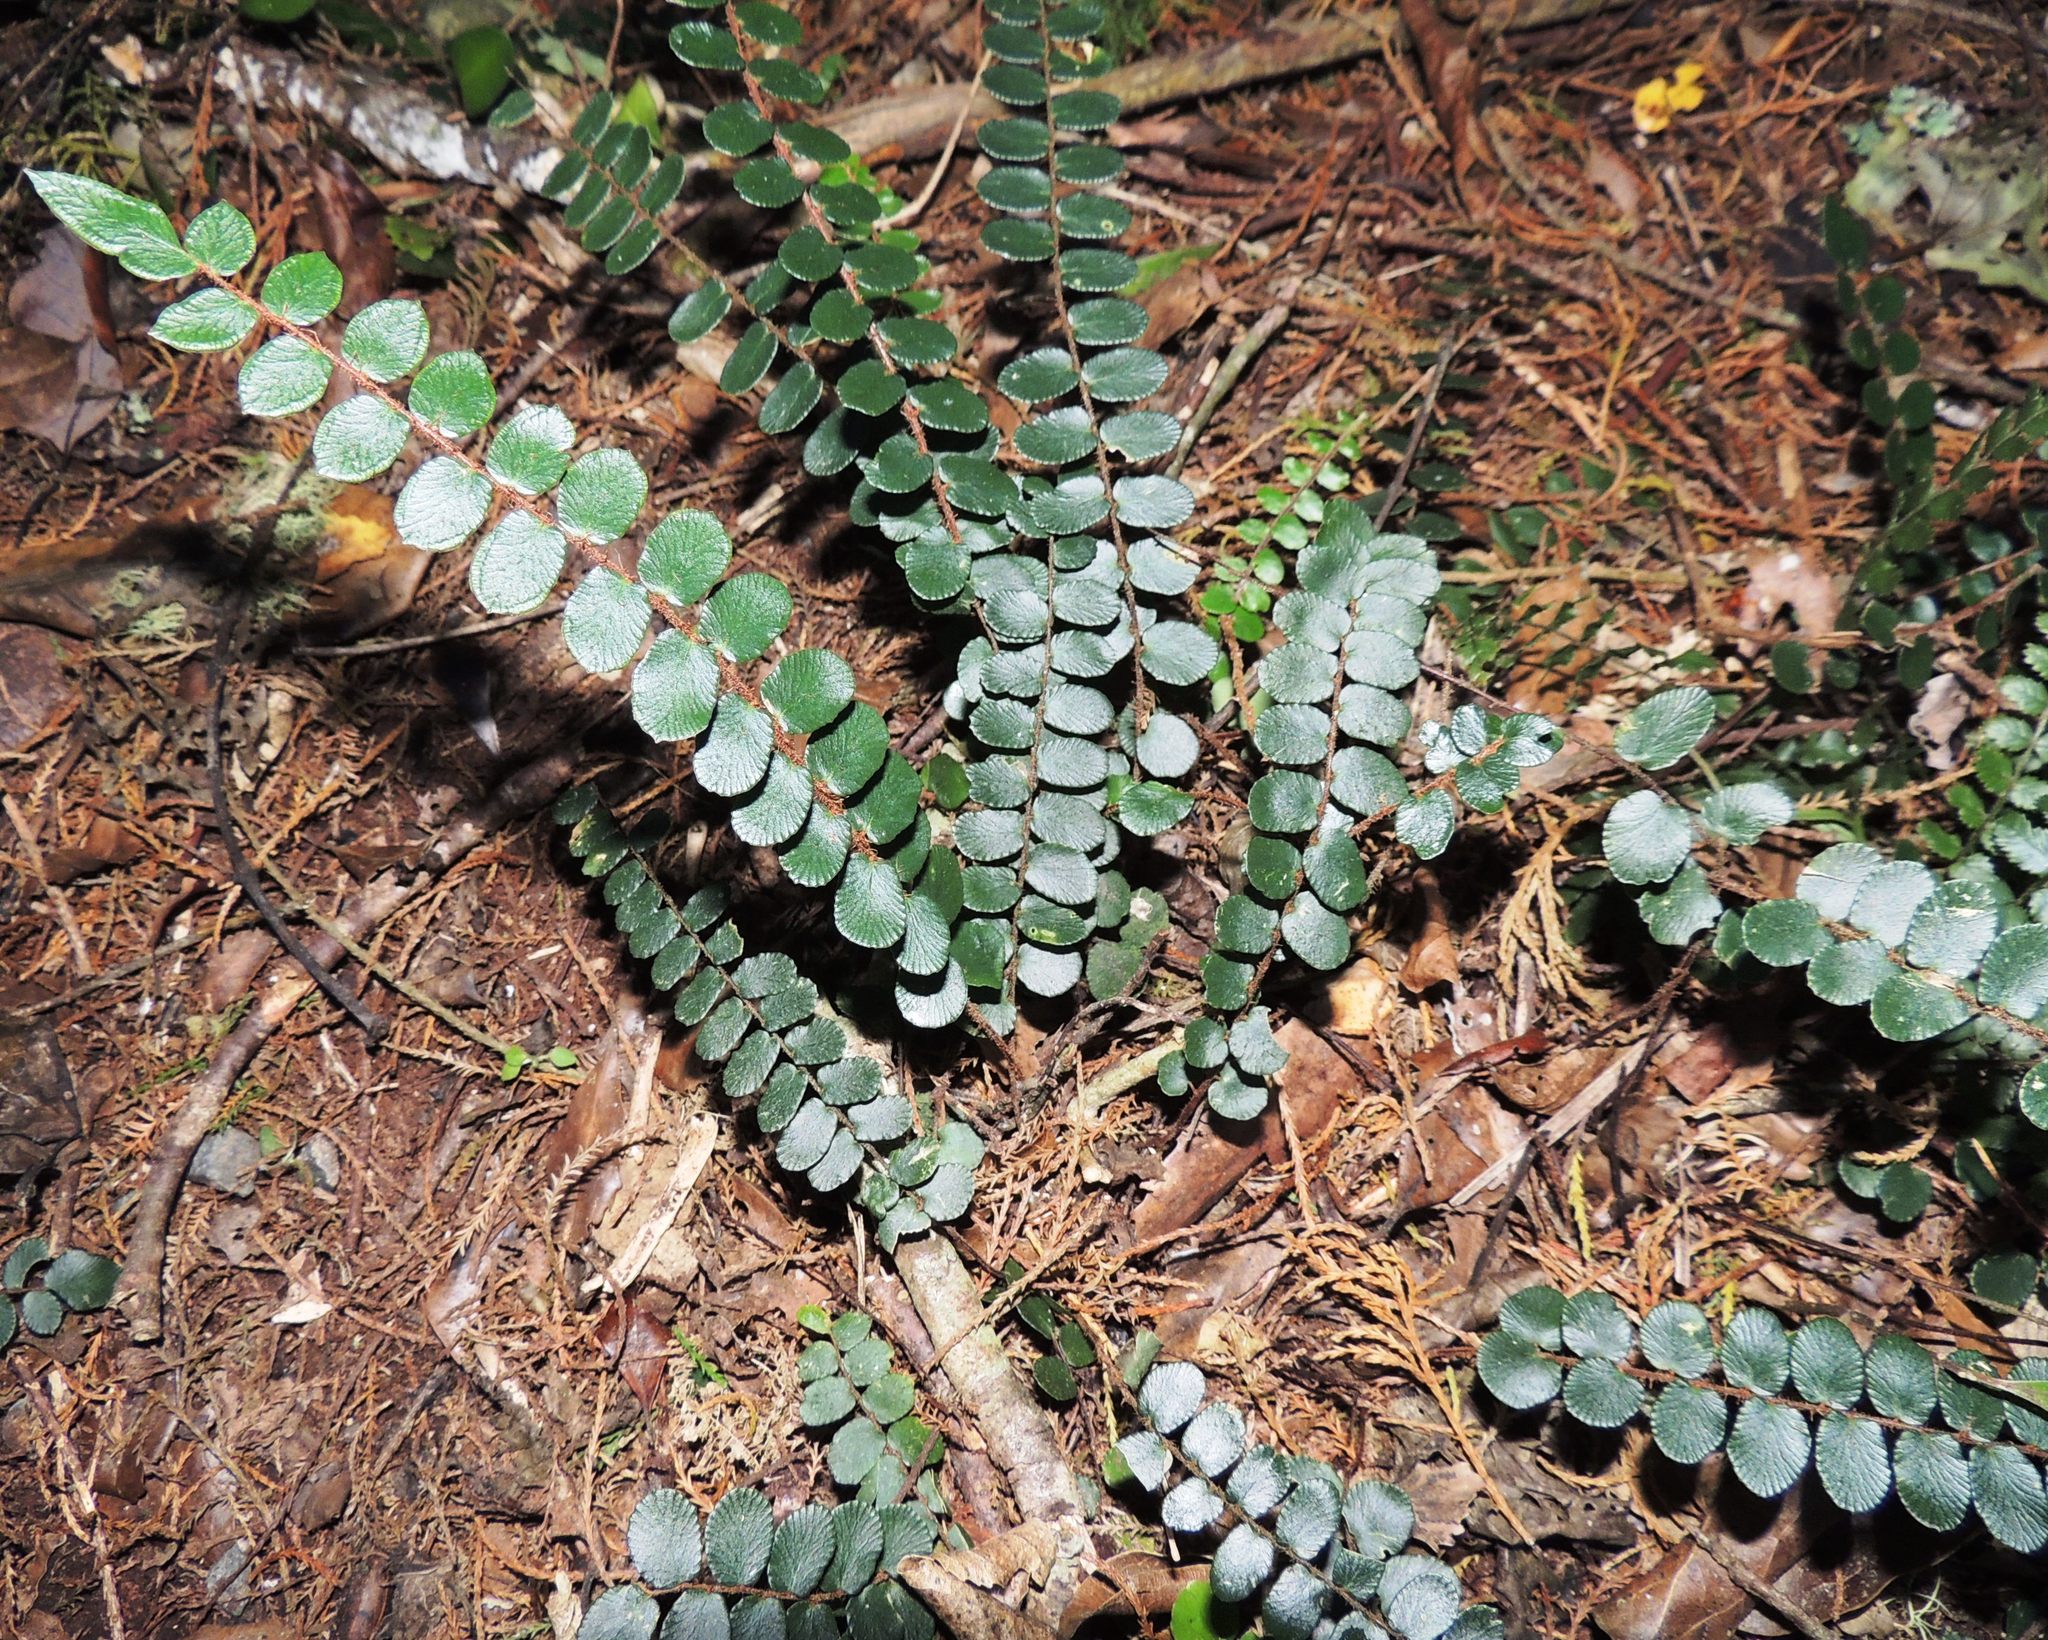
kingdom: Plantae
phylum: Tracheophyta
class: Polypodiopsida
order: Polypodiales
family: Pteridaceae
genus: Pellaea
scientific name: Pellaea rotundifolia
